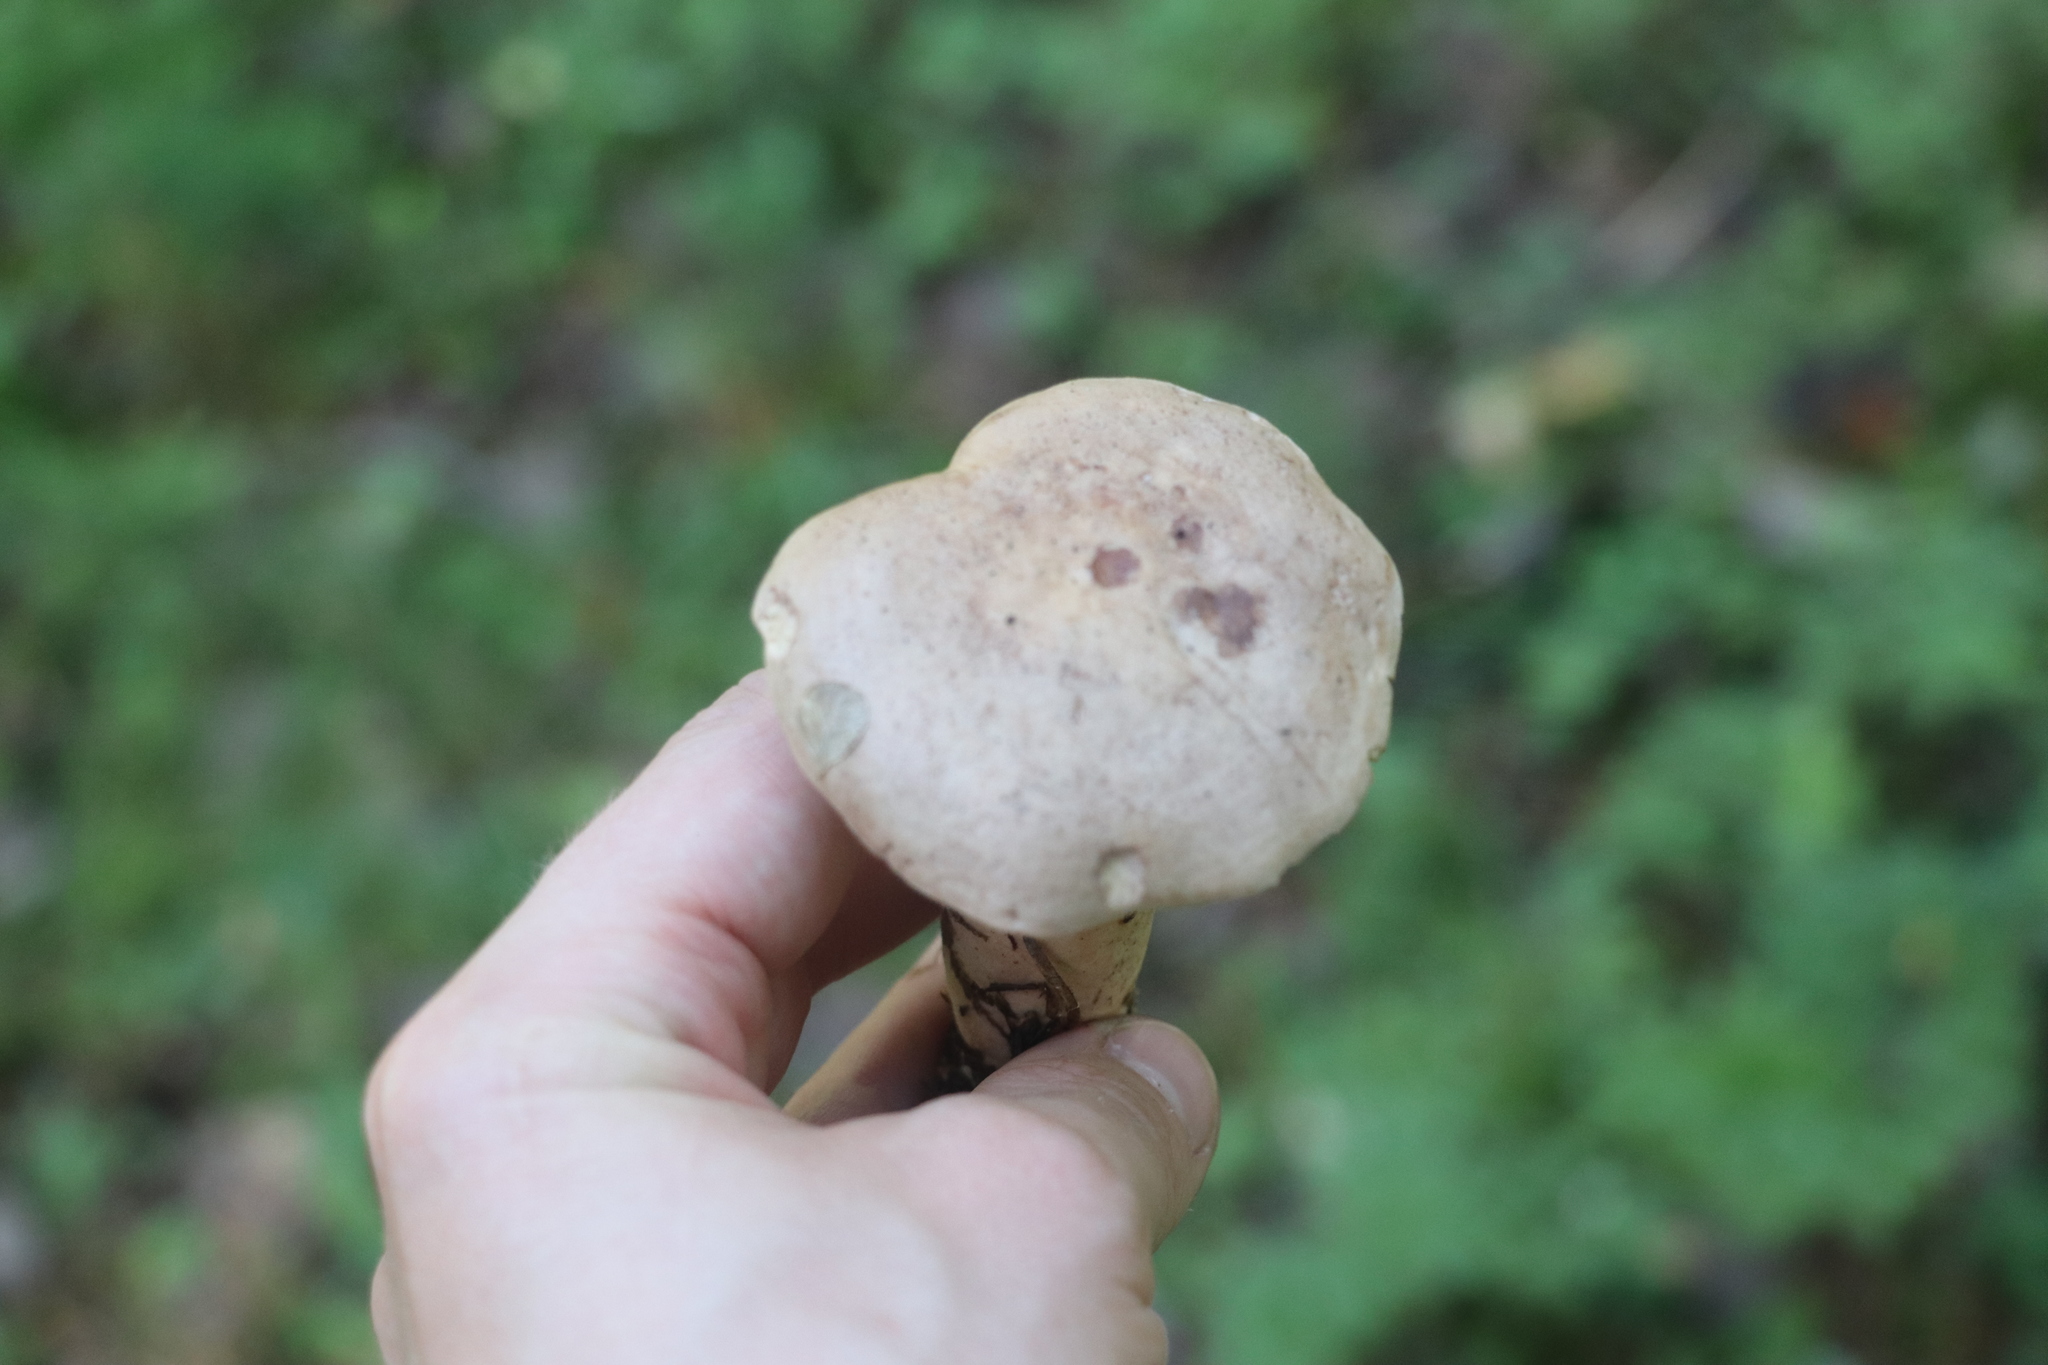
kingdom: Fungi
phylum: Basidiomycota
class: Agaricomycetes
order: Russulales
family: Russulaceae
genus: Lactarius
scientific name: Lactarius trivialis
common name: Tacked milkcap
